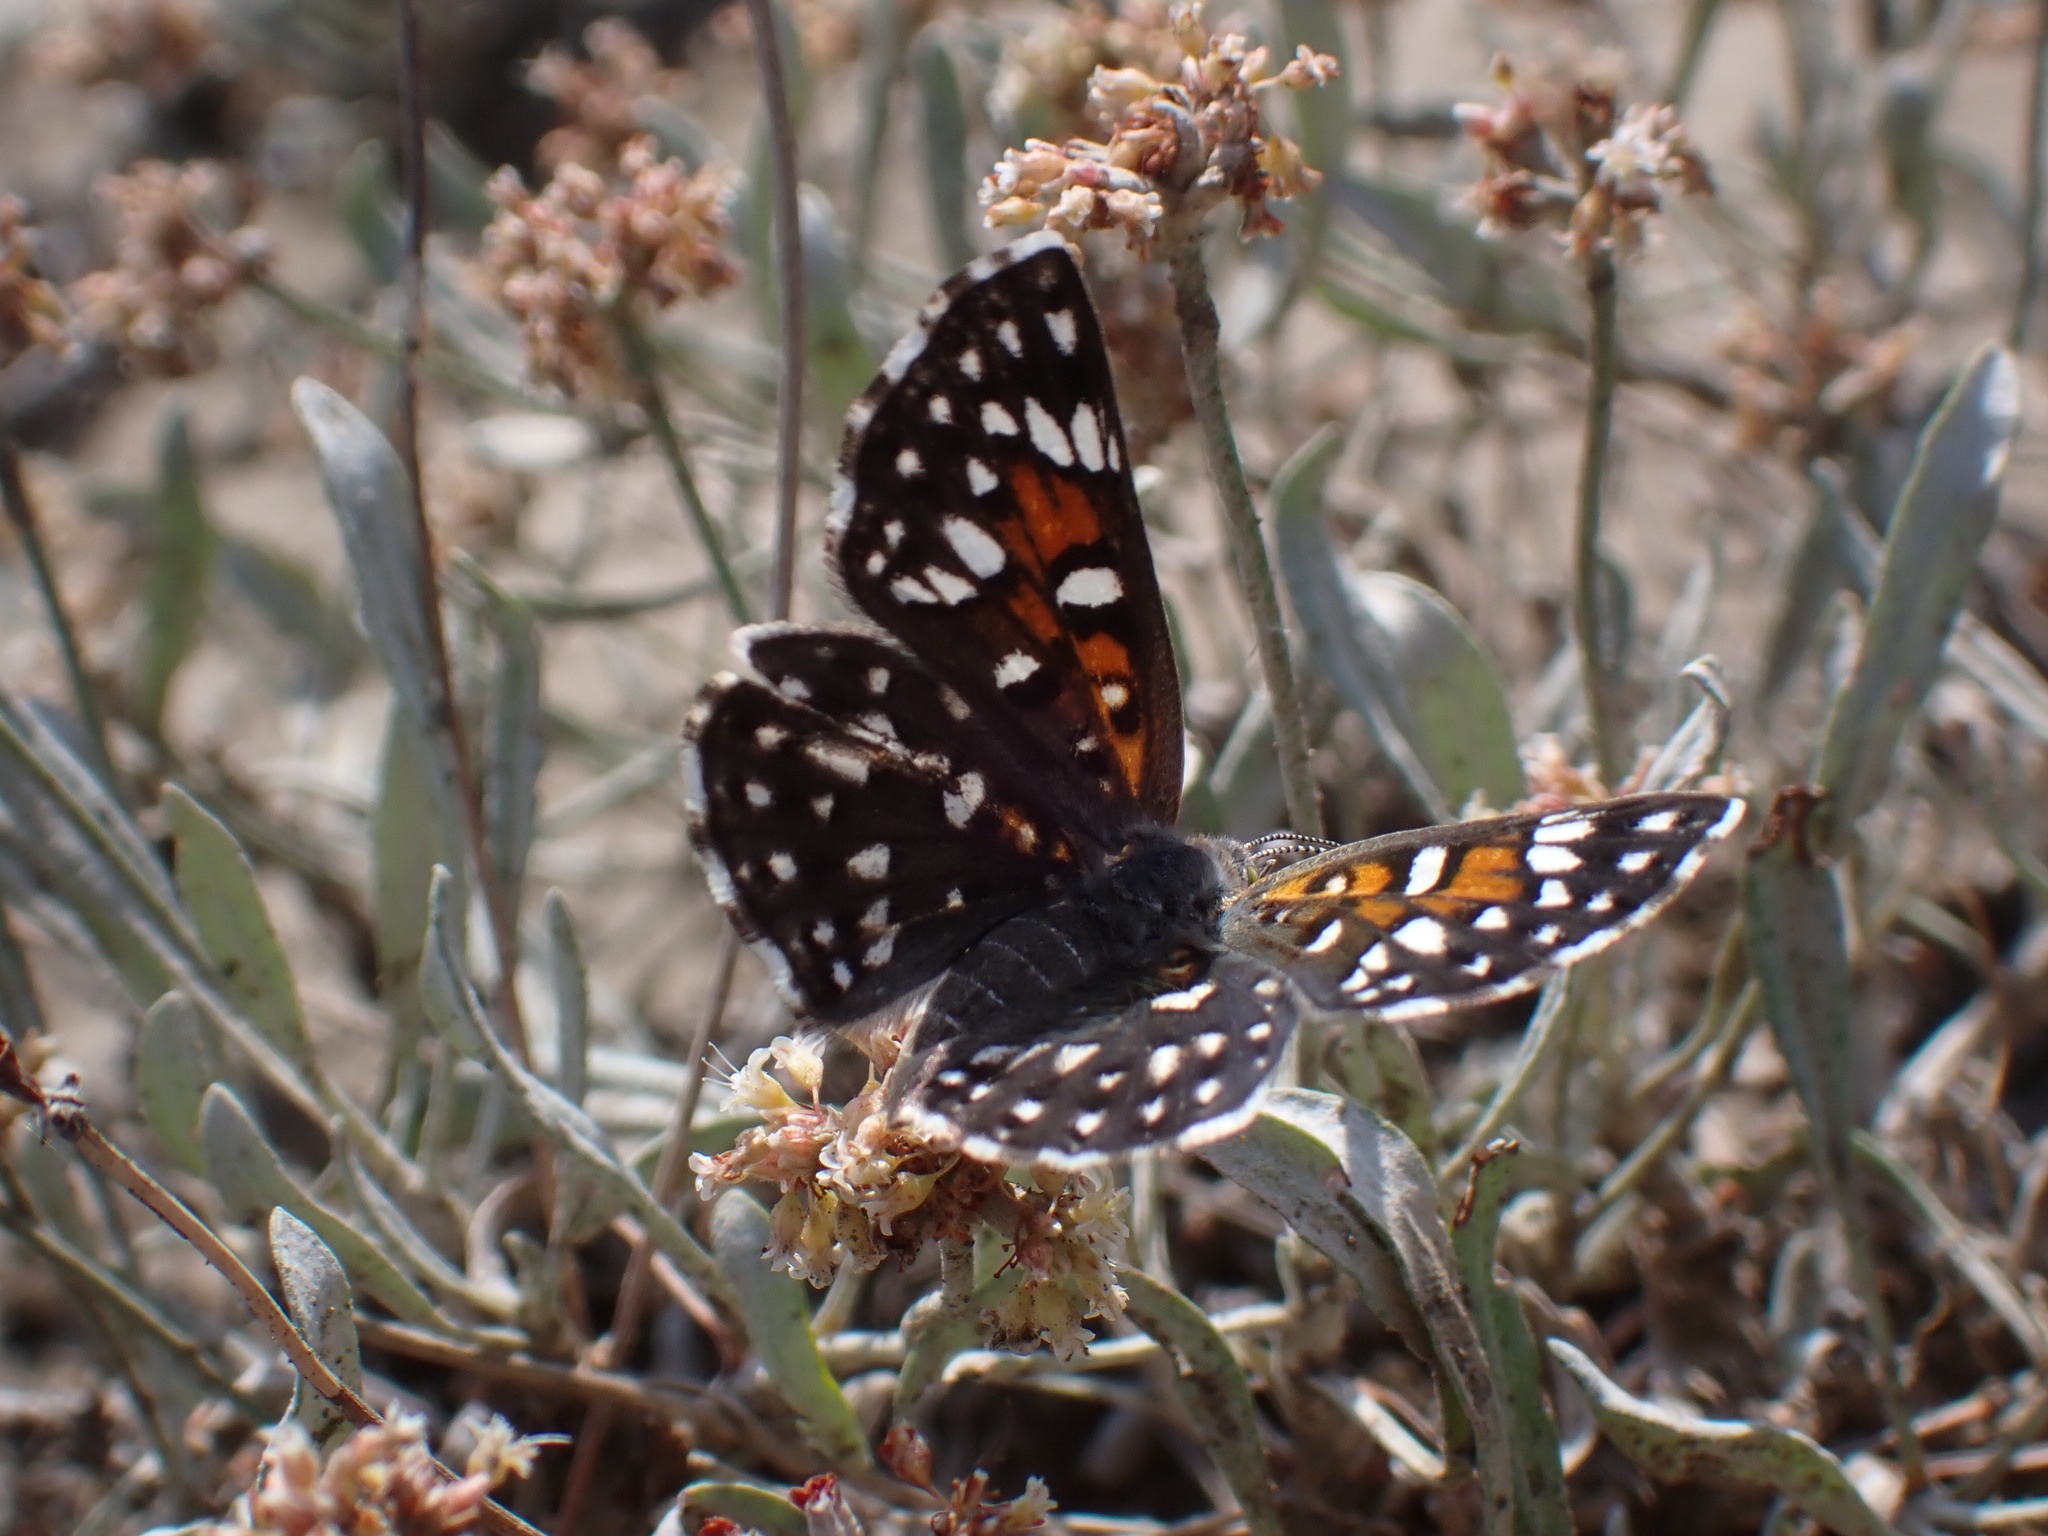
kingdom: Animalia
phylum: Arthropoda
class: Insecta
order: Lepidoptera
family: Riodinidae
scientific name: Riodinidae
